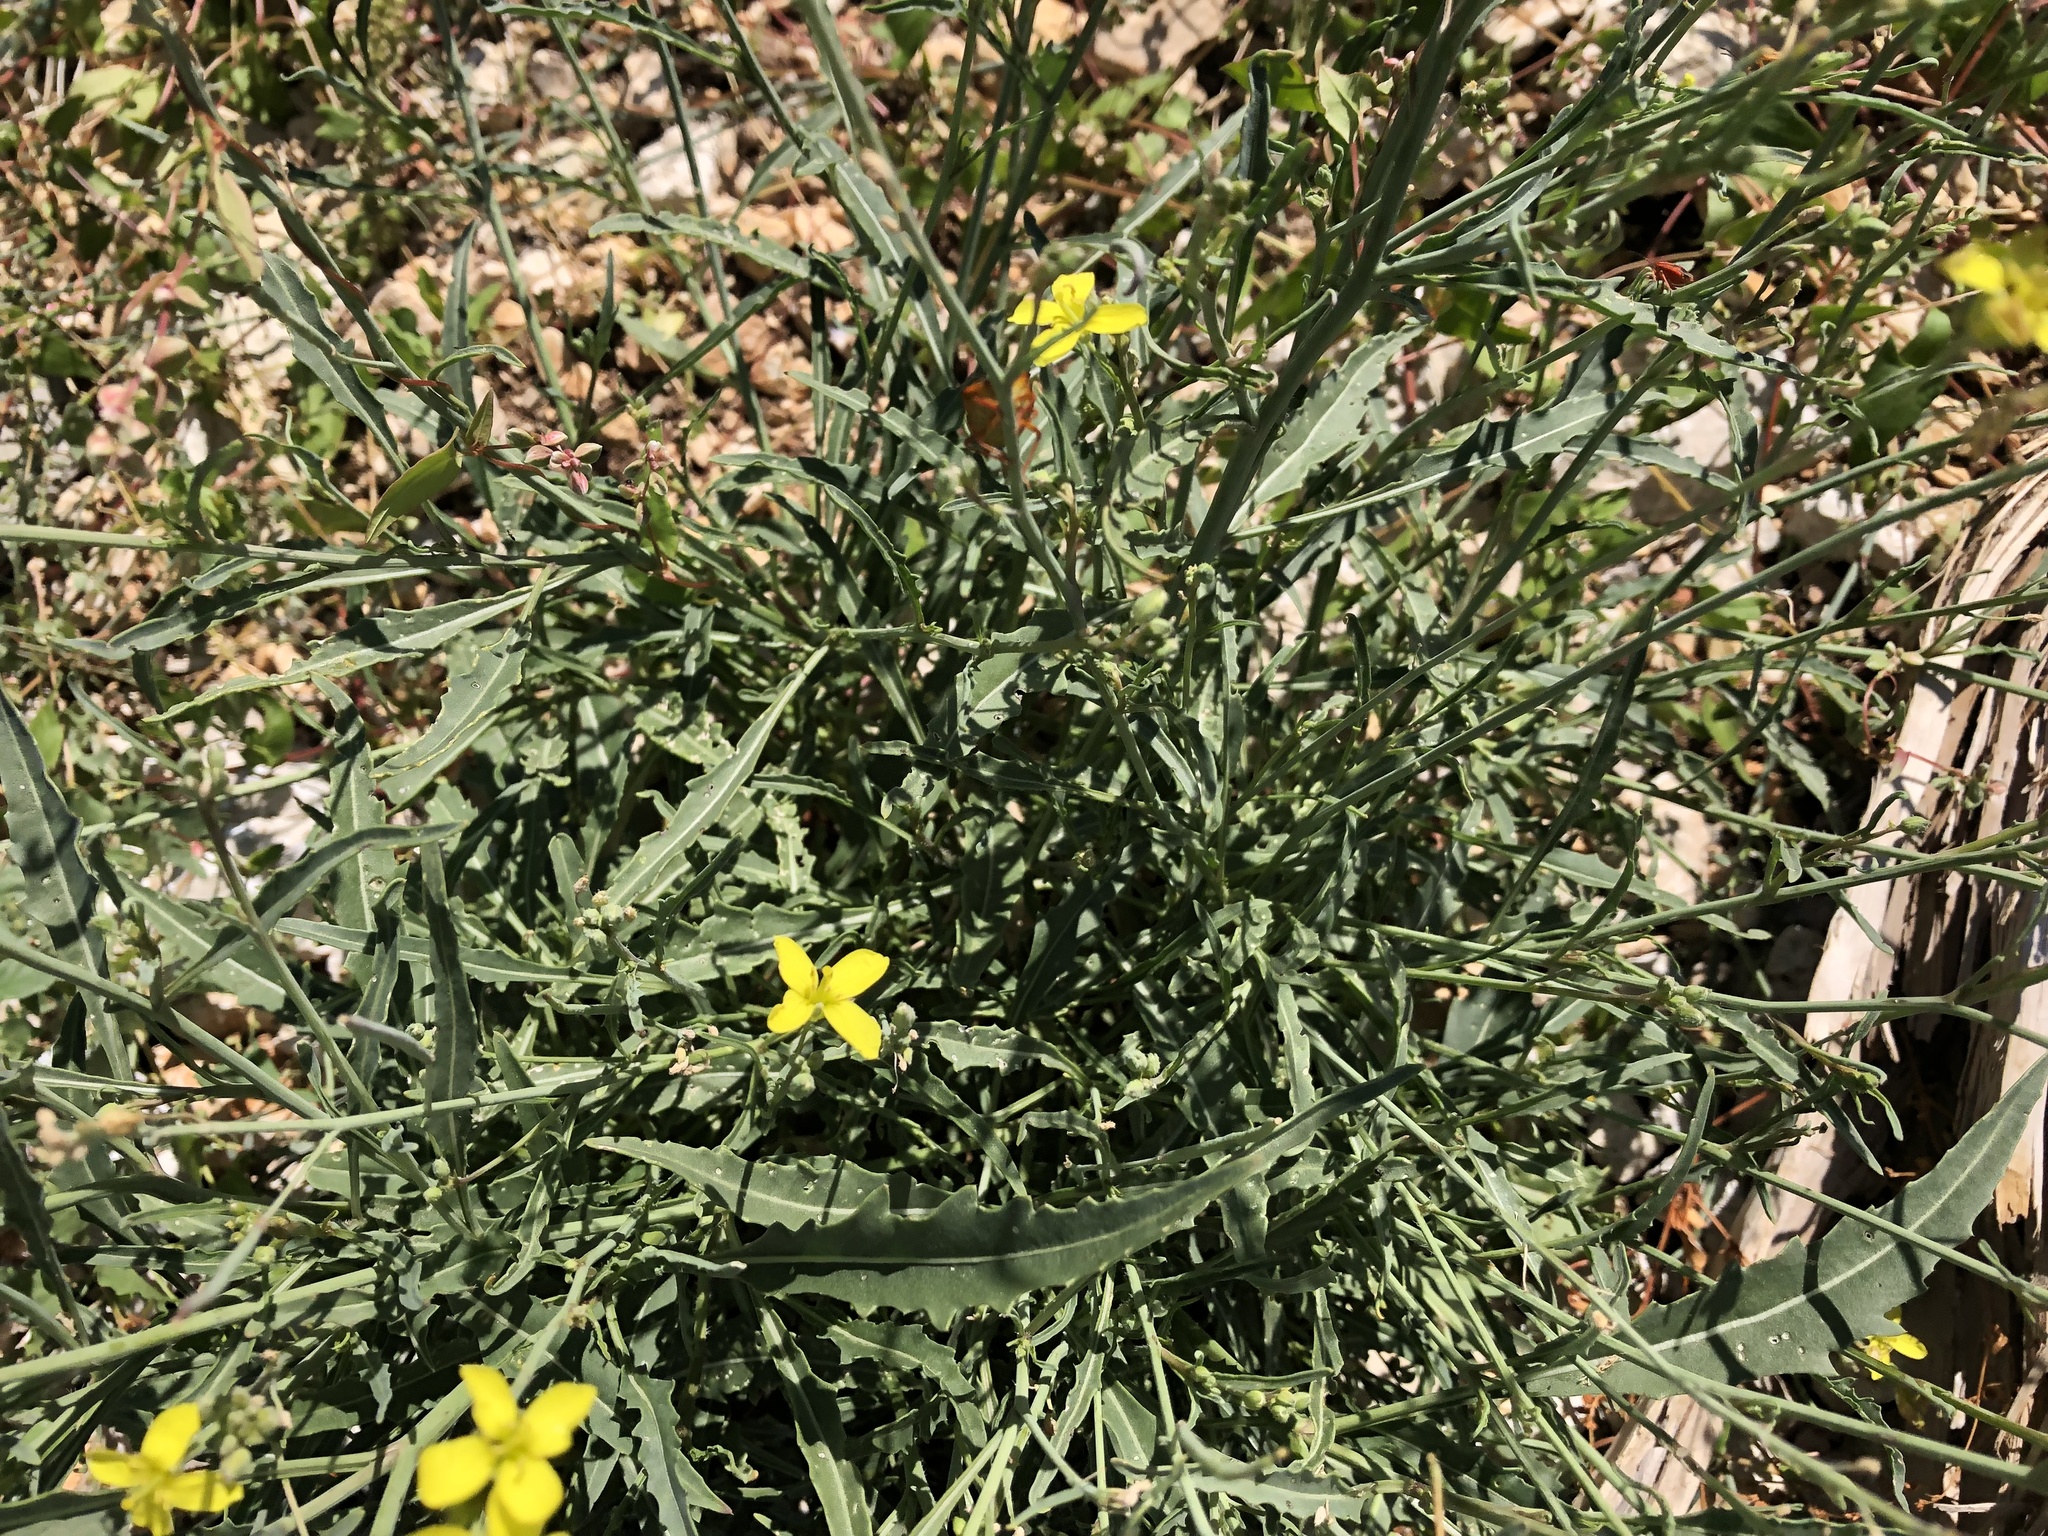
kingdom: Plantae
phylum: Tracheophyta
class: Magnoliopsida
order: Brassicales
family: Brassicaceae
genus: Diplotaxis
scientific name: Diplotaxis tenuifolia
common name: Perennial wall-rocket
